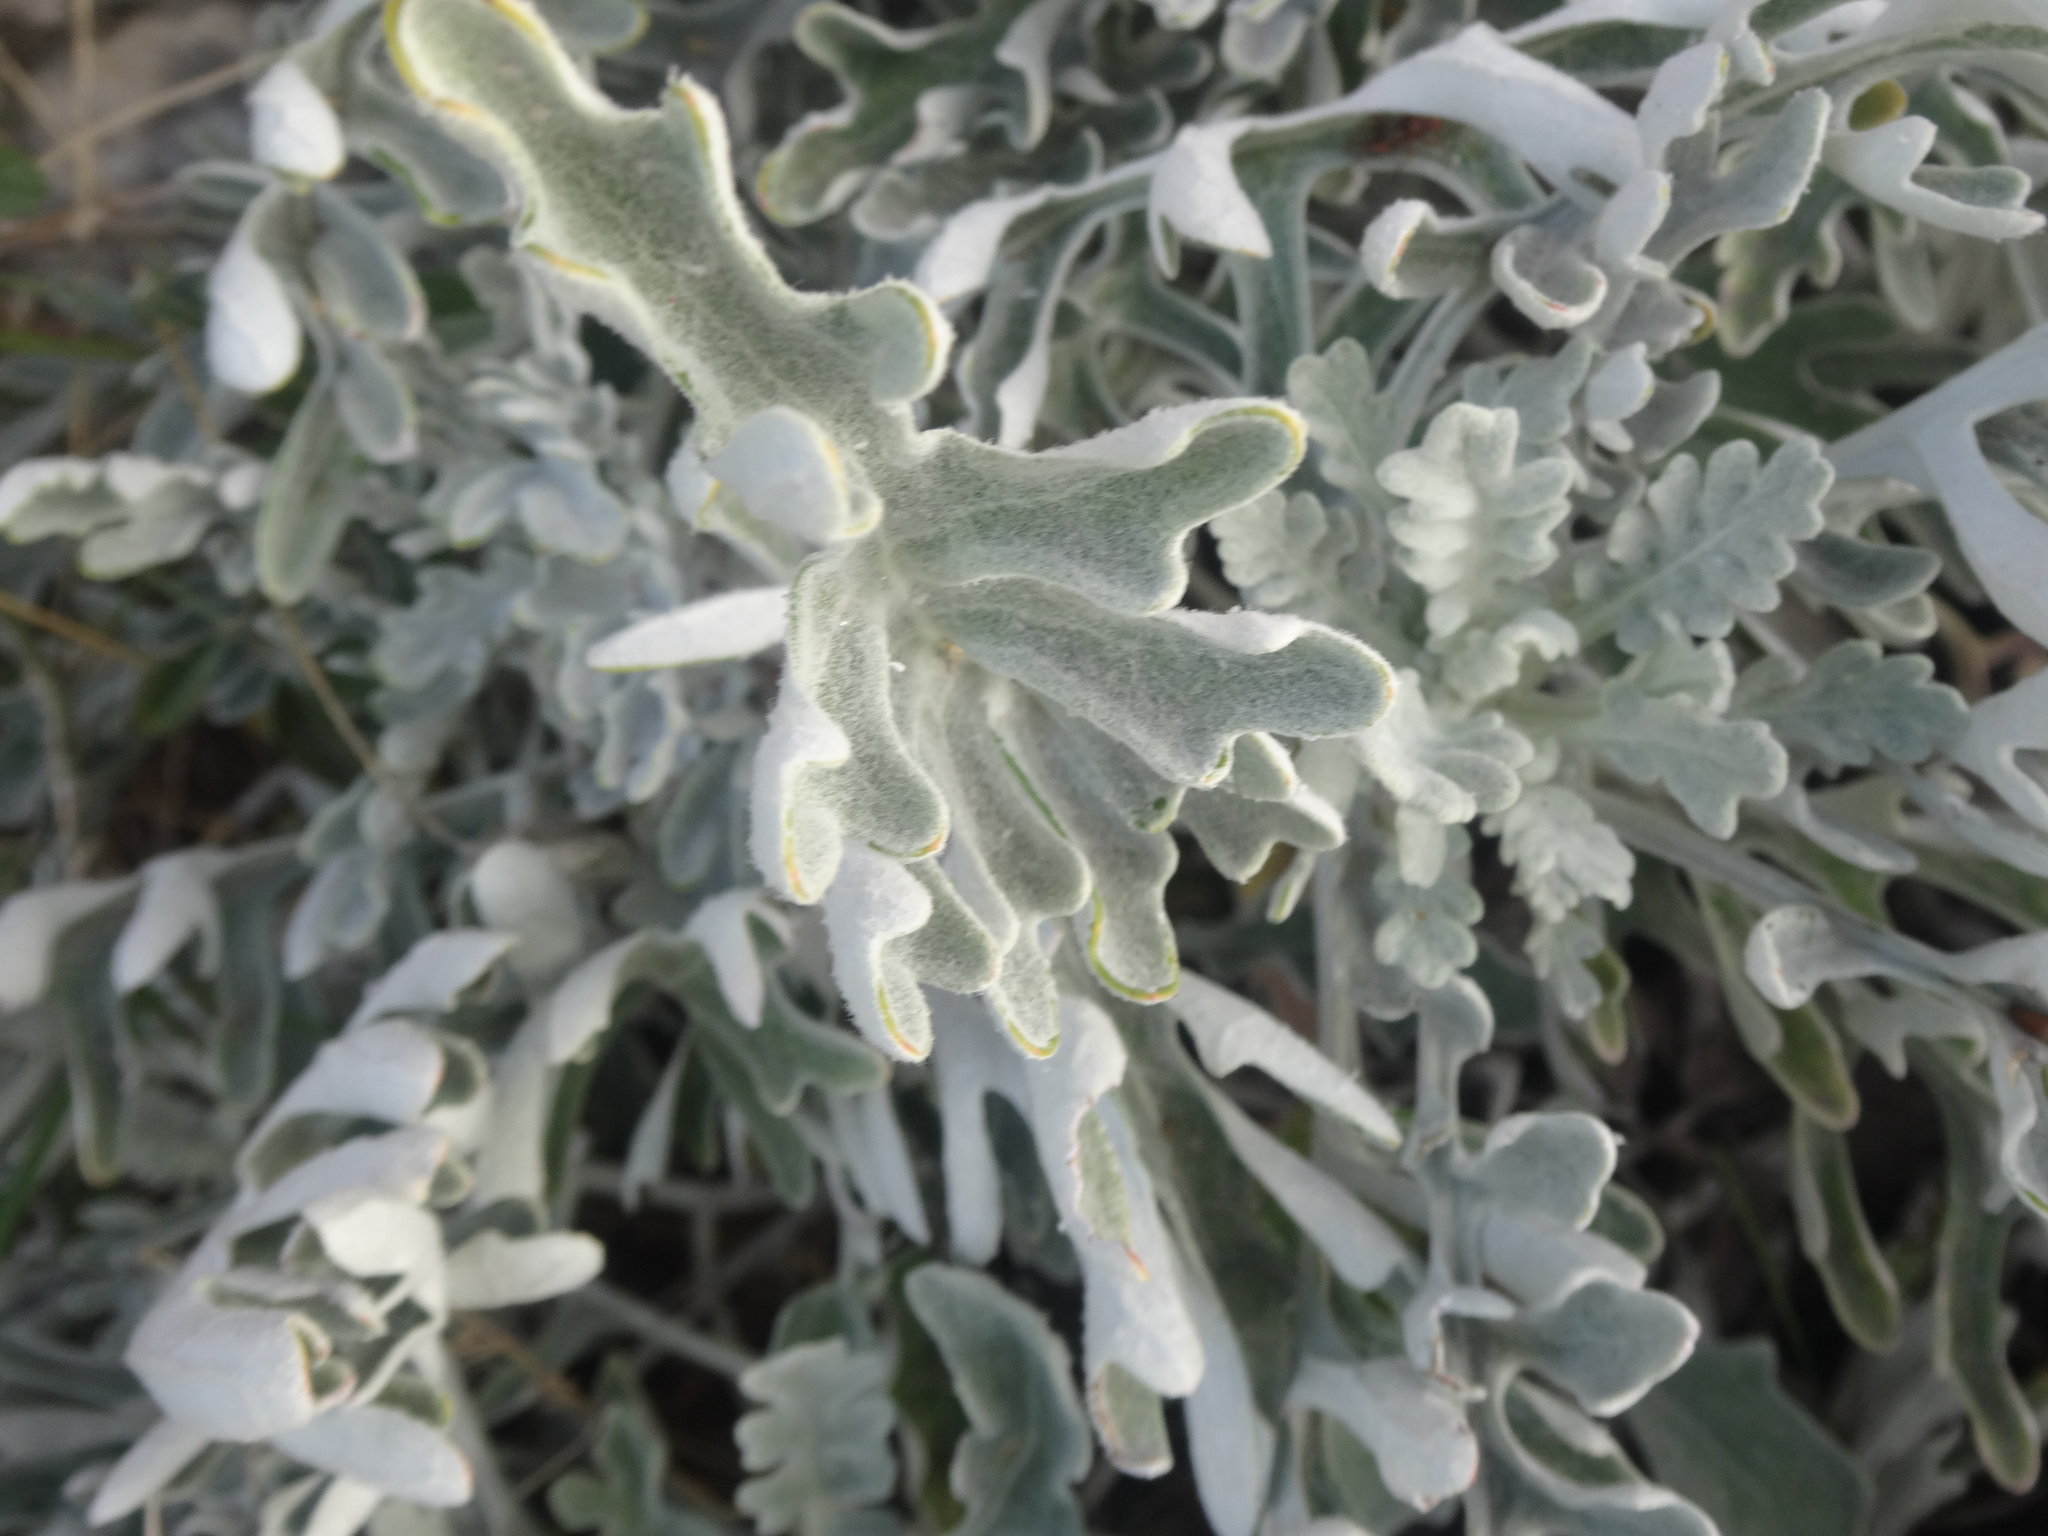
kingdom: Plantae
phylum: Tracheophyta
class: Magnoliopsida
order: Asterales
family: Asteraceae
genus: Jacobaea
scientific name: Jacobaea maritima
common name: Silver ragwort
